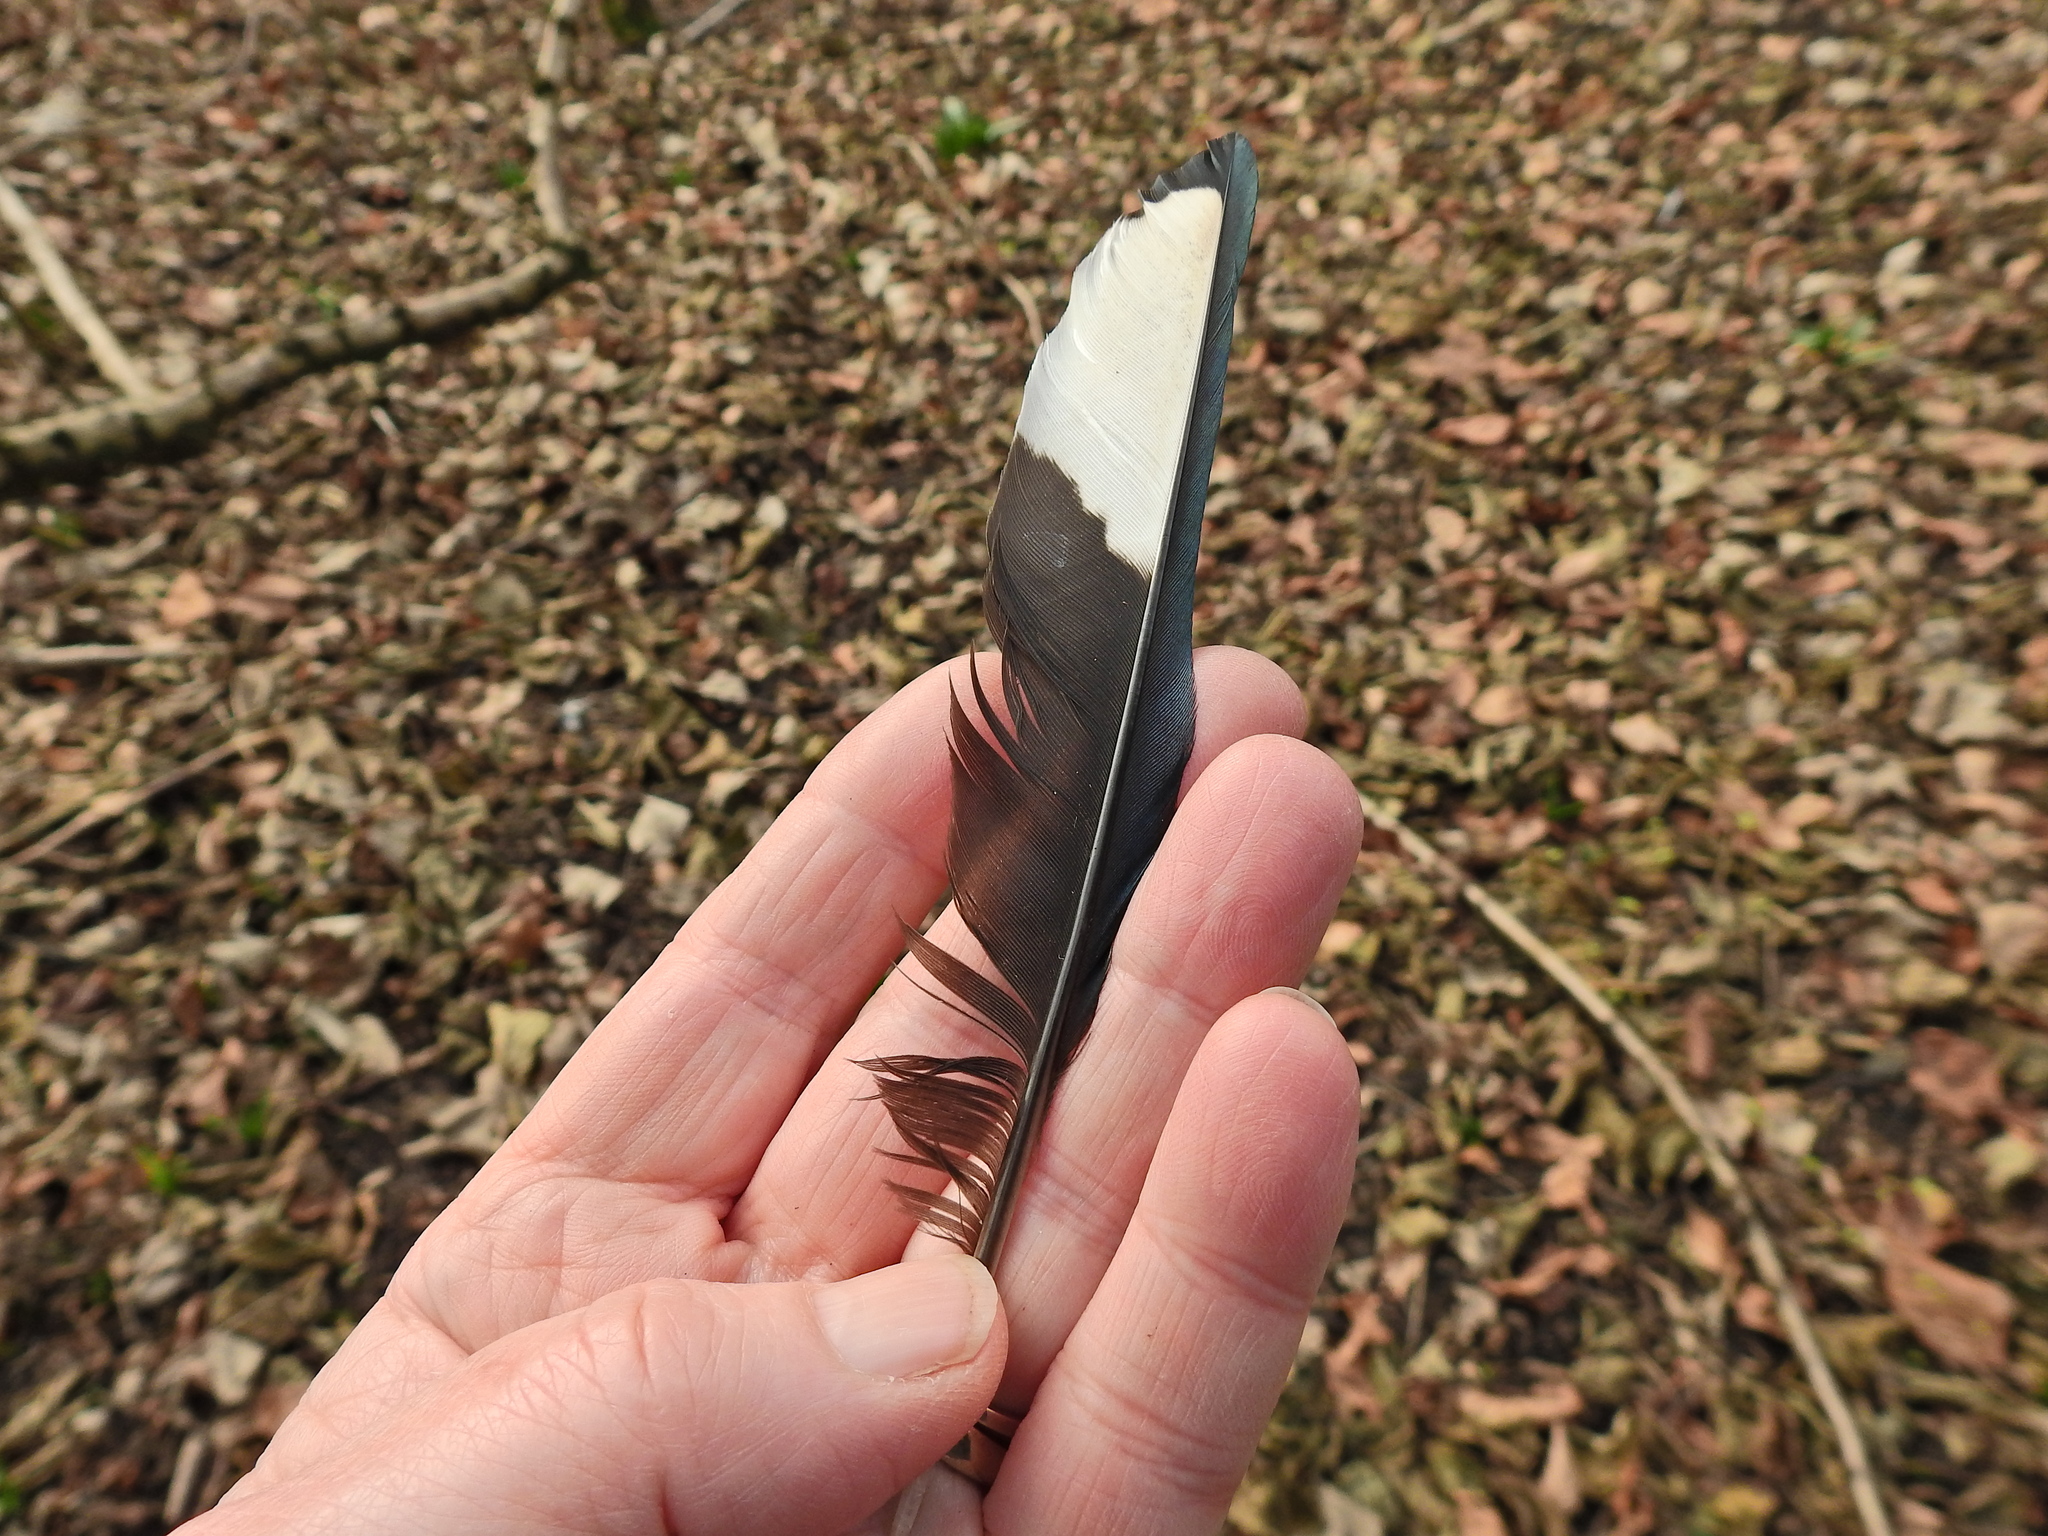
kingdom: Animalia
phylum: Chordata
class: Aves
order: Passeriformes
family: Corvidae
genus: Pica
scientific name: Pica pica
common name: Eurasian magpie
